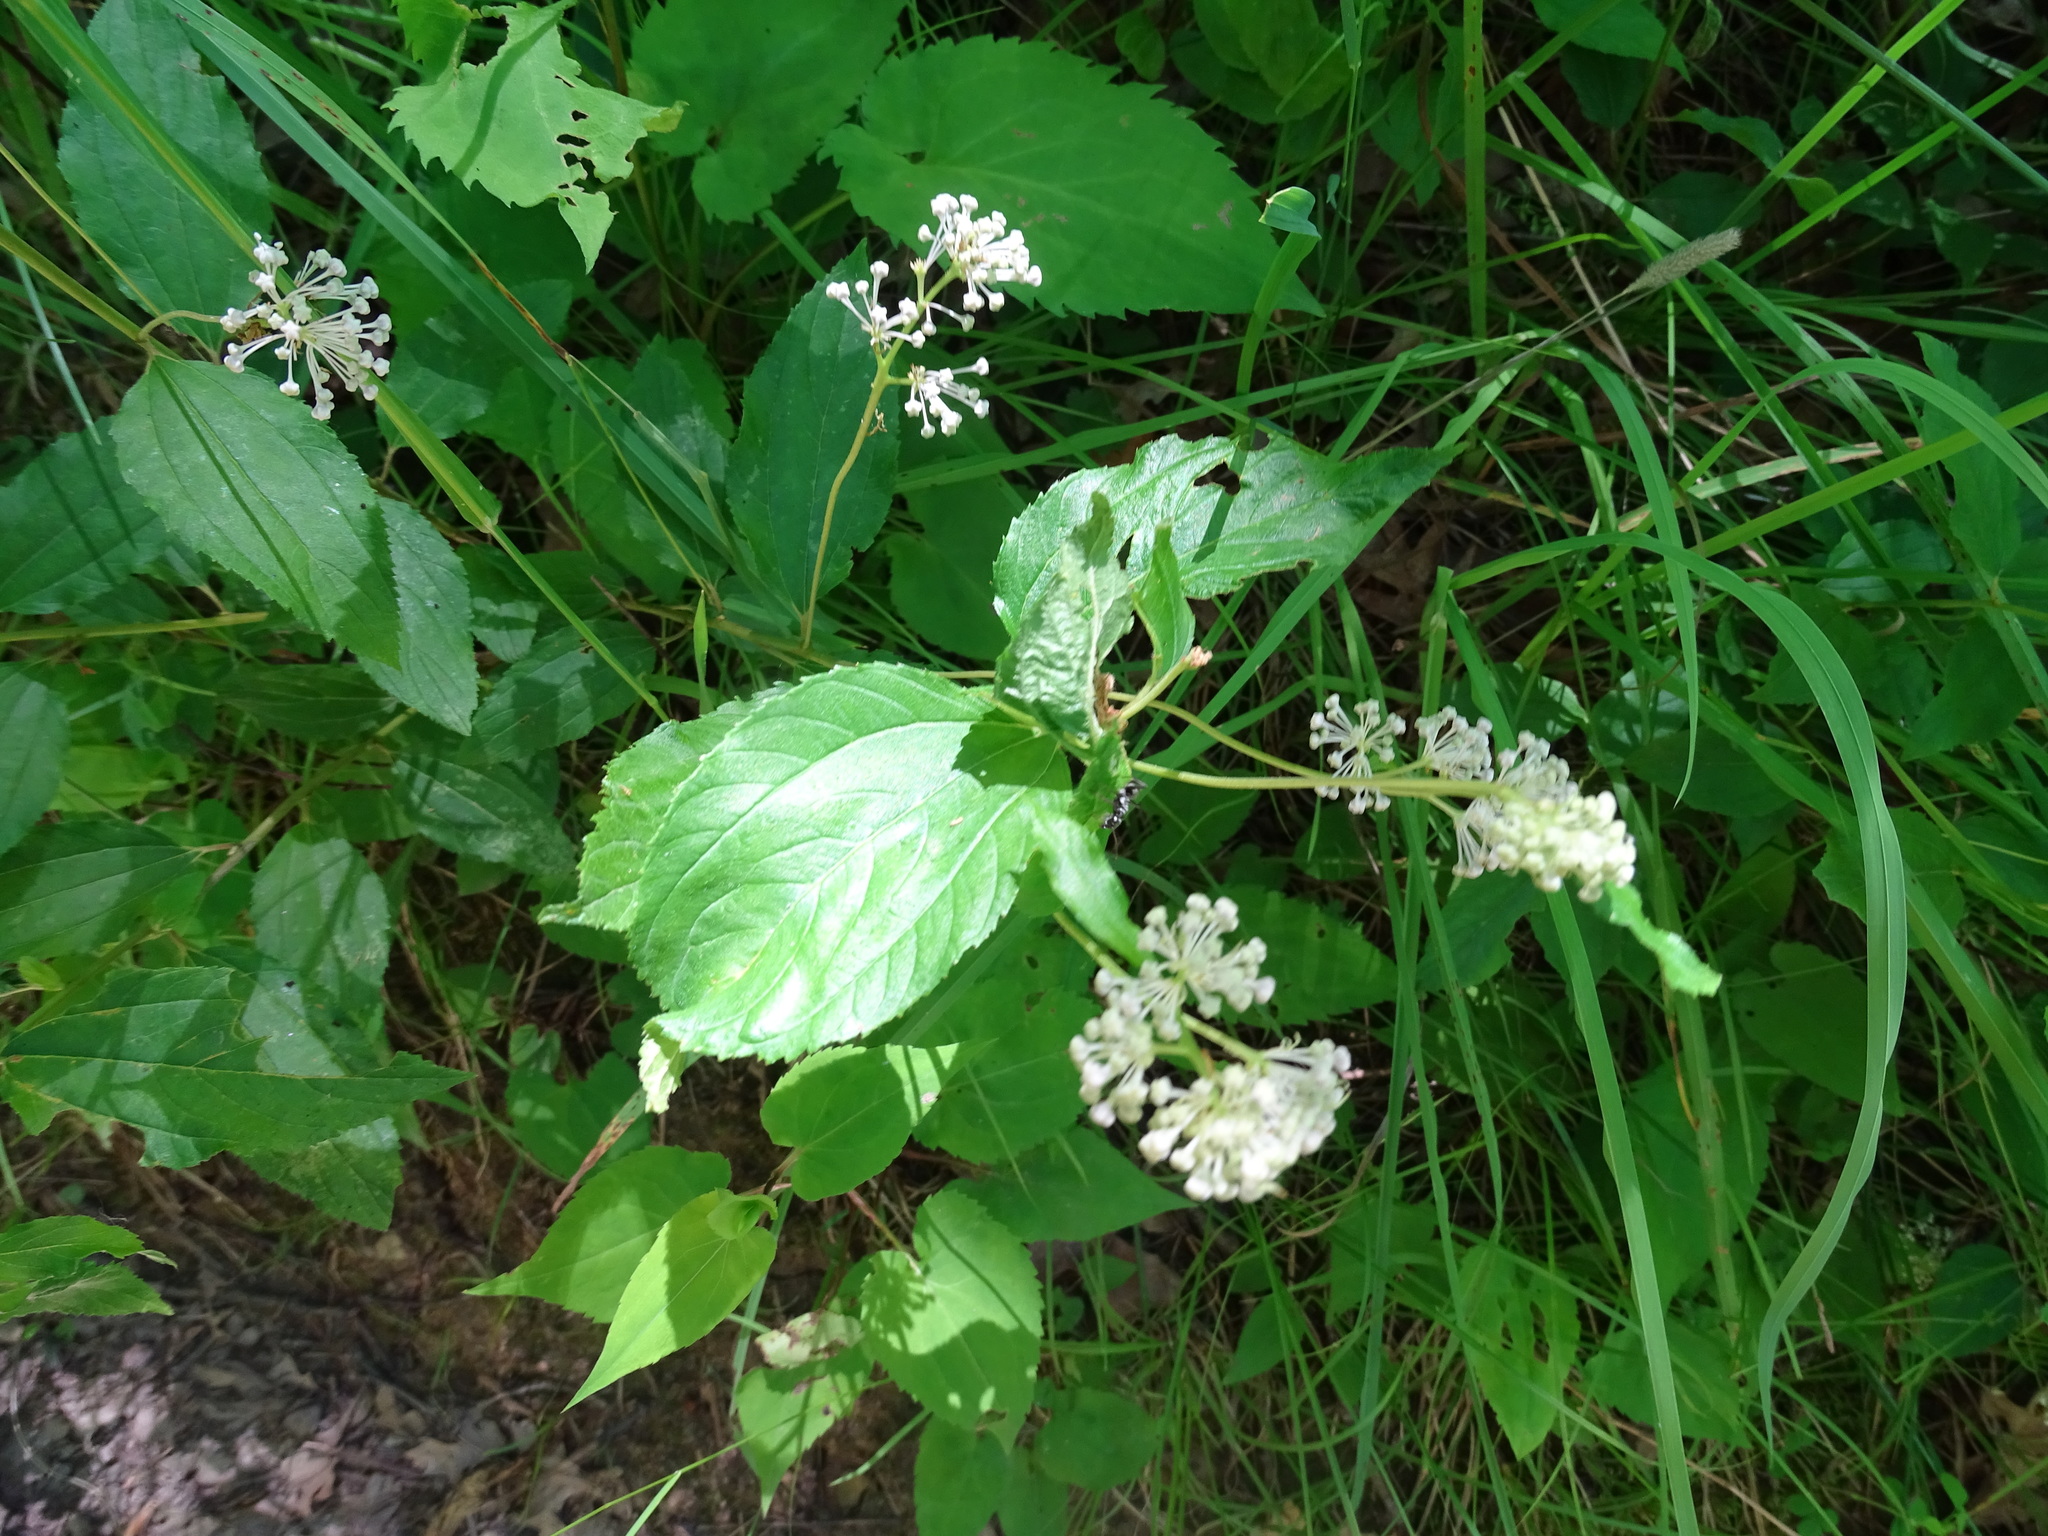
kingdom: Plantae
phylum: Tracheophyta
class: Magnoliopsida
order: Rosales
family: Rhamnaceae
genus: Ceanothus
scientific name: Ceanothus americanus
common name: Redroot
